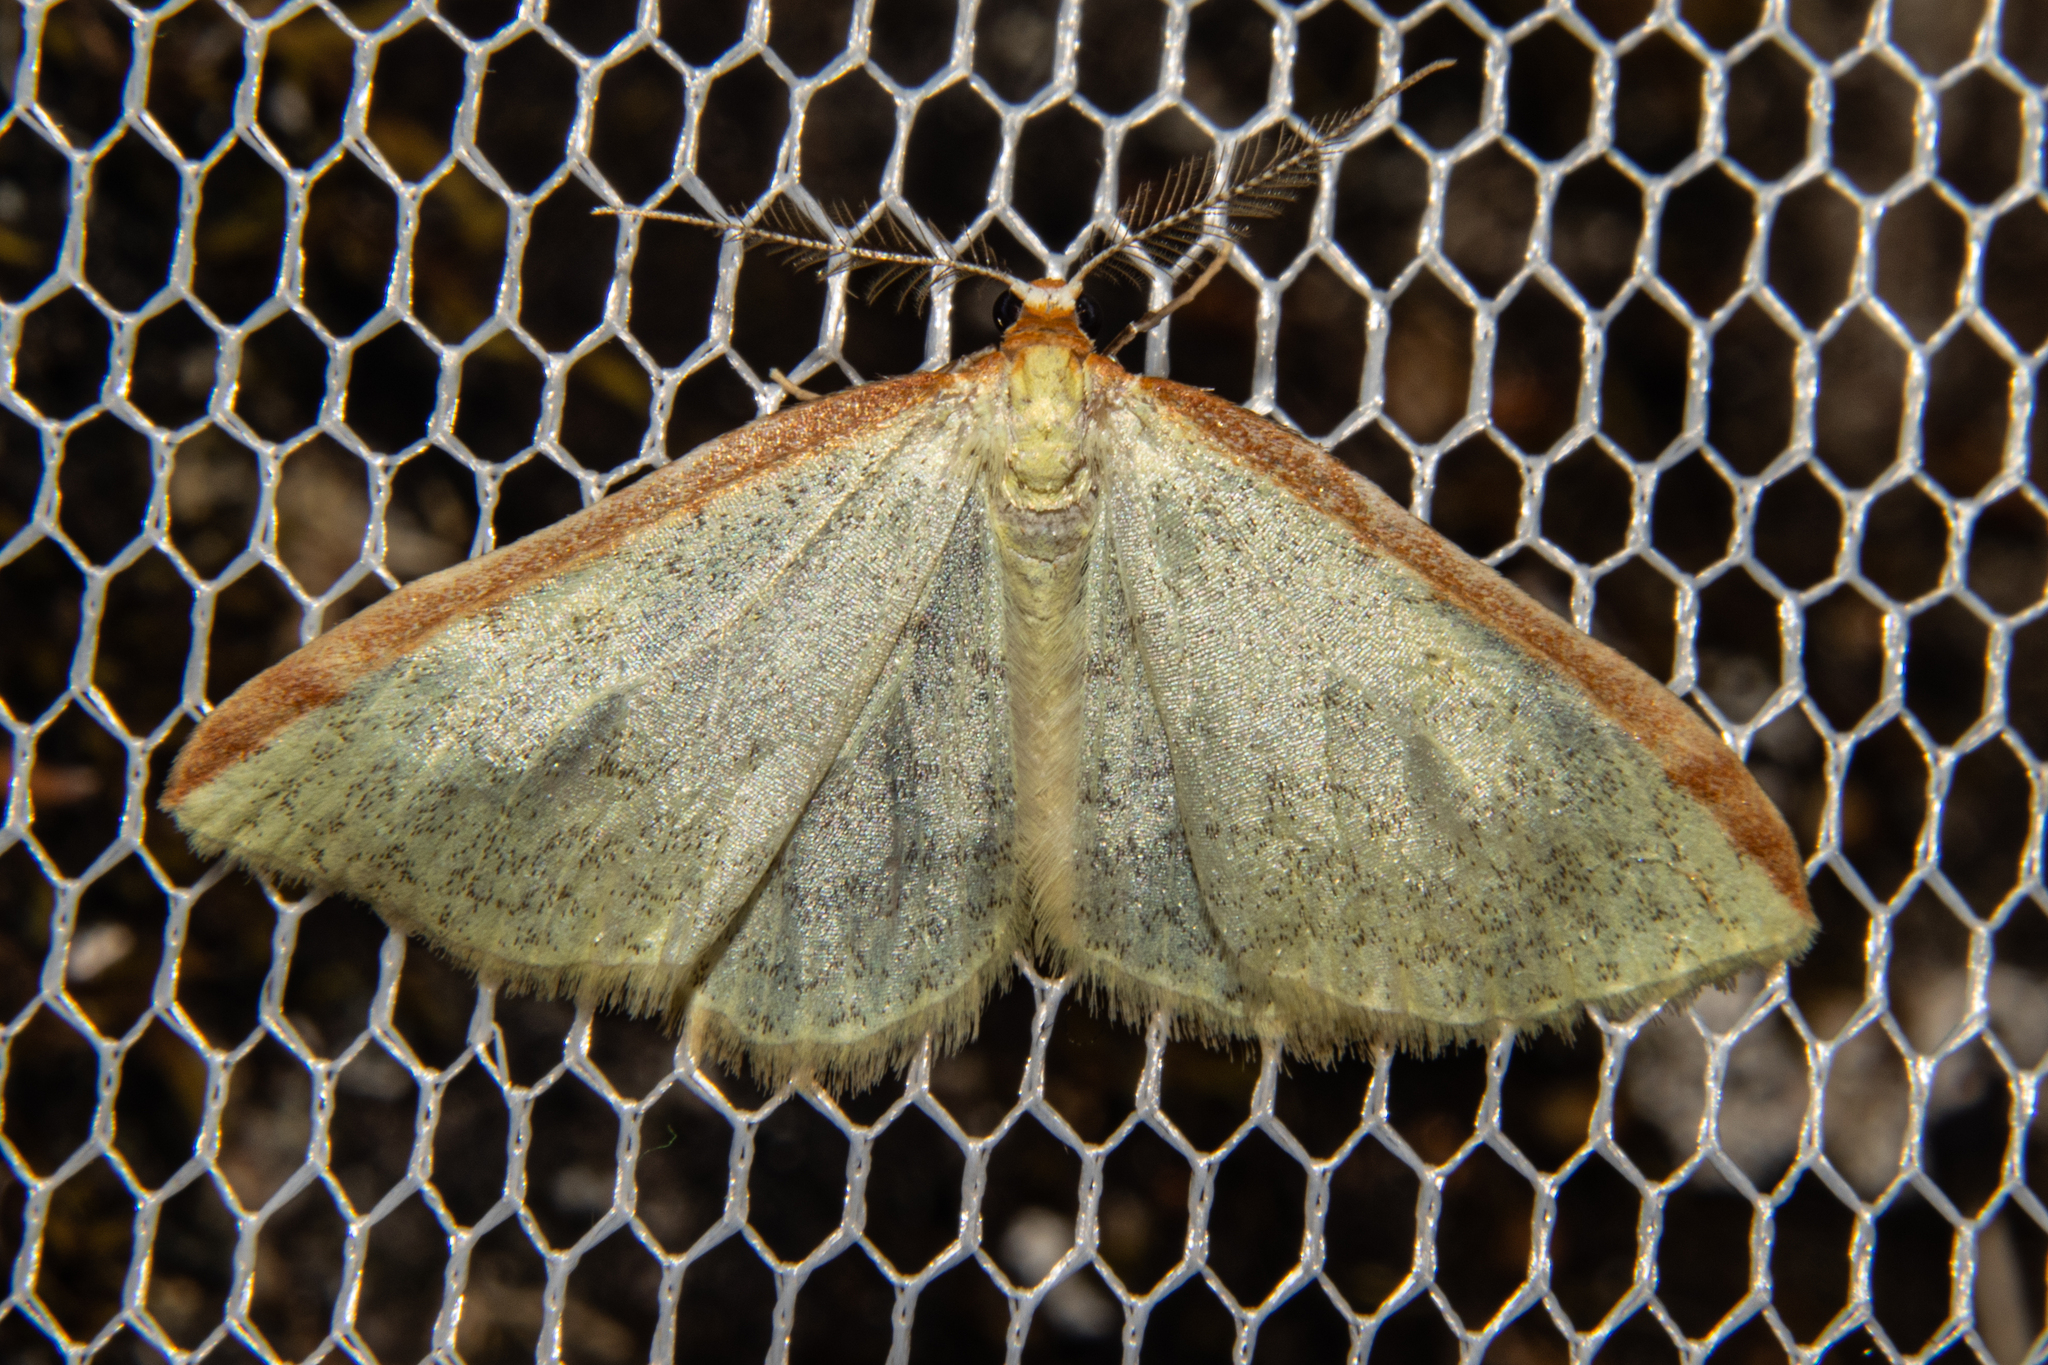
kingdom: Animalia
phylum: Arthropoda
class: Insecta
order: Lepidoptera
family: Geometridae
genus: Epiphryne
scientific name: Epiphryne undosata
